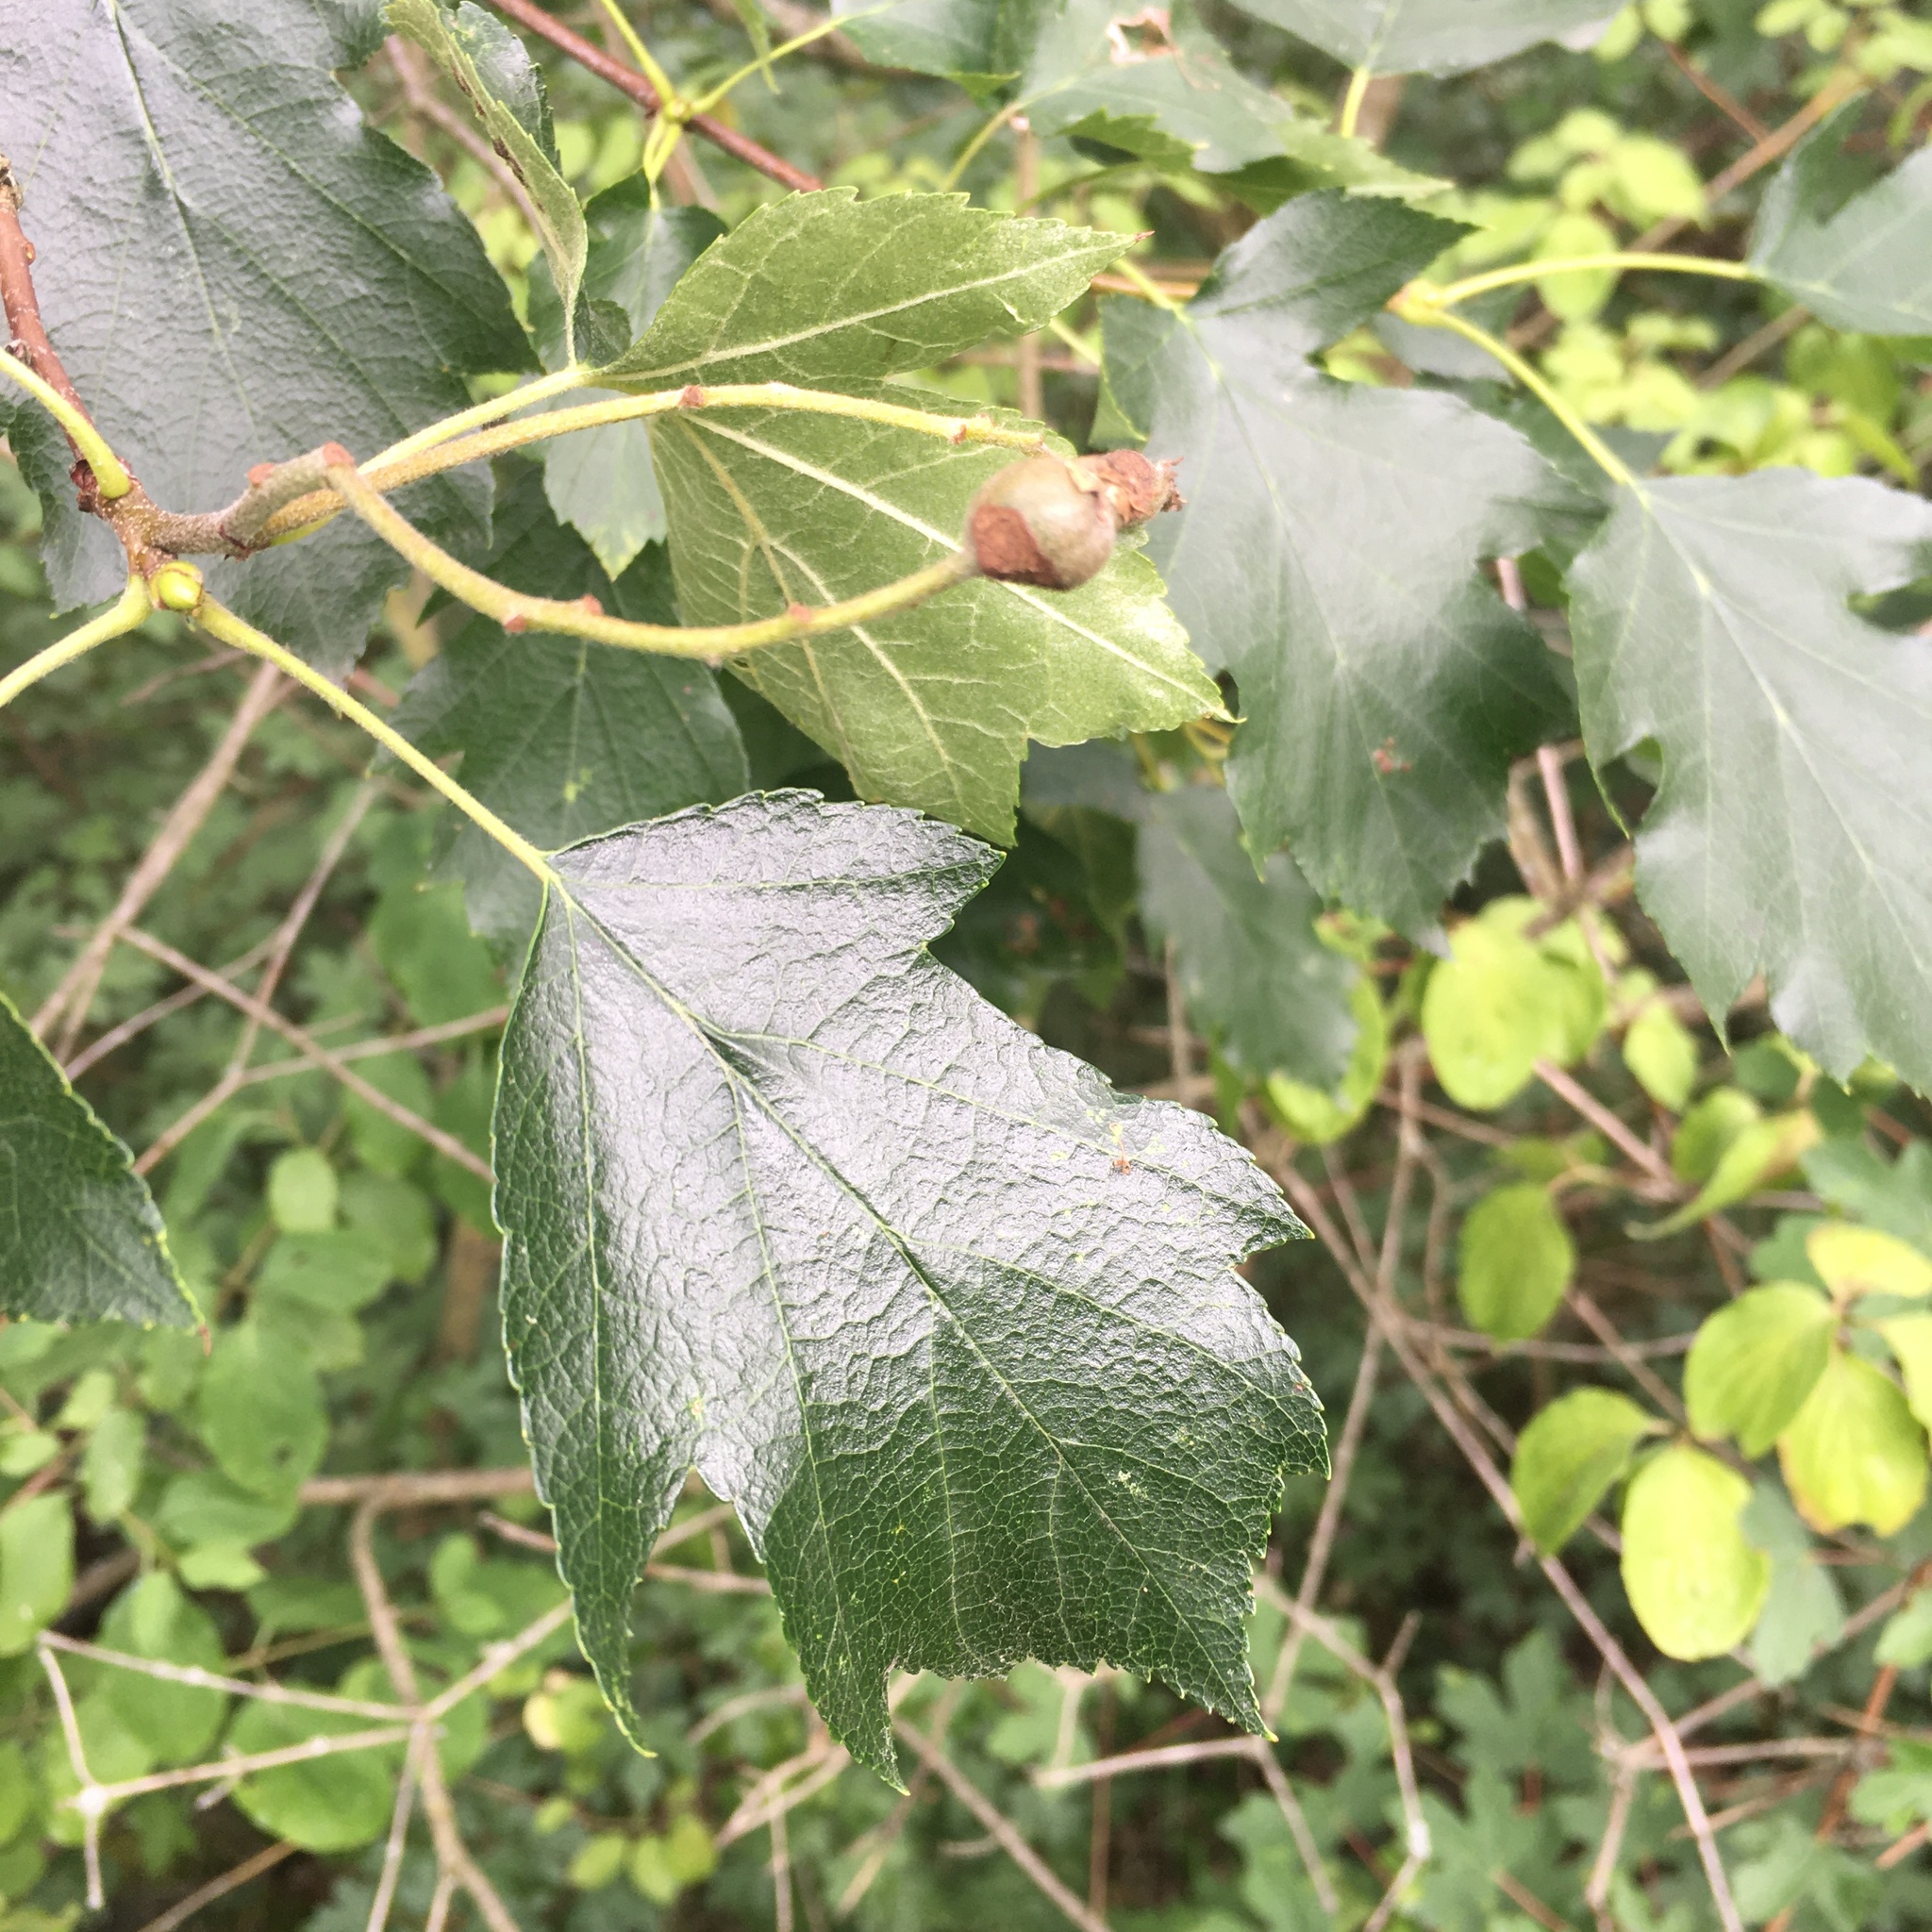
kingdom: Plantae
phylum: Tracheophyta
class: Magnoliopsida
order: Rosales
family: Rosaceae
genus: Torminalis
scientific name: Torminalis glaberrima
